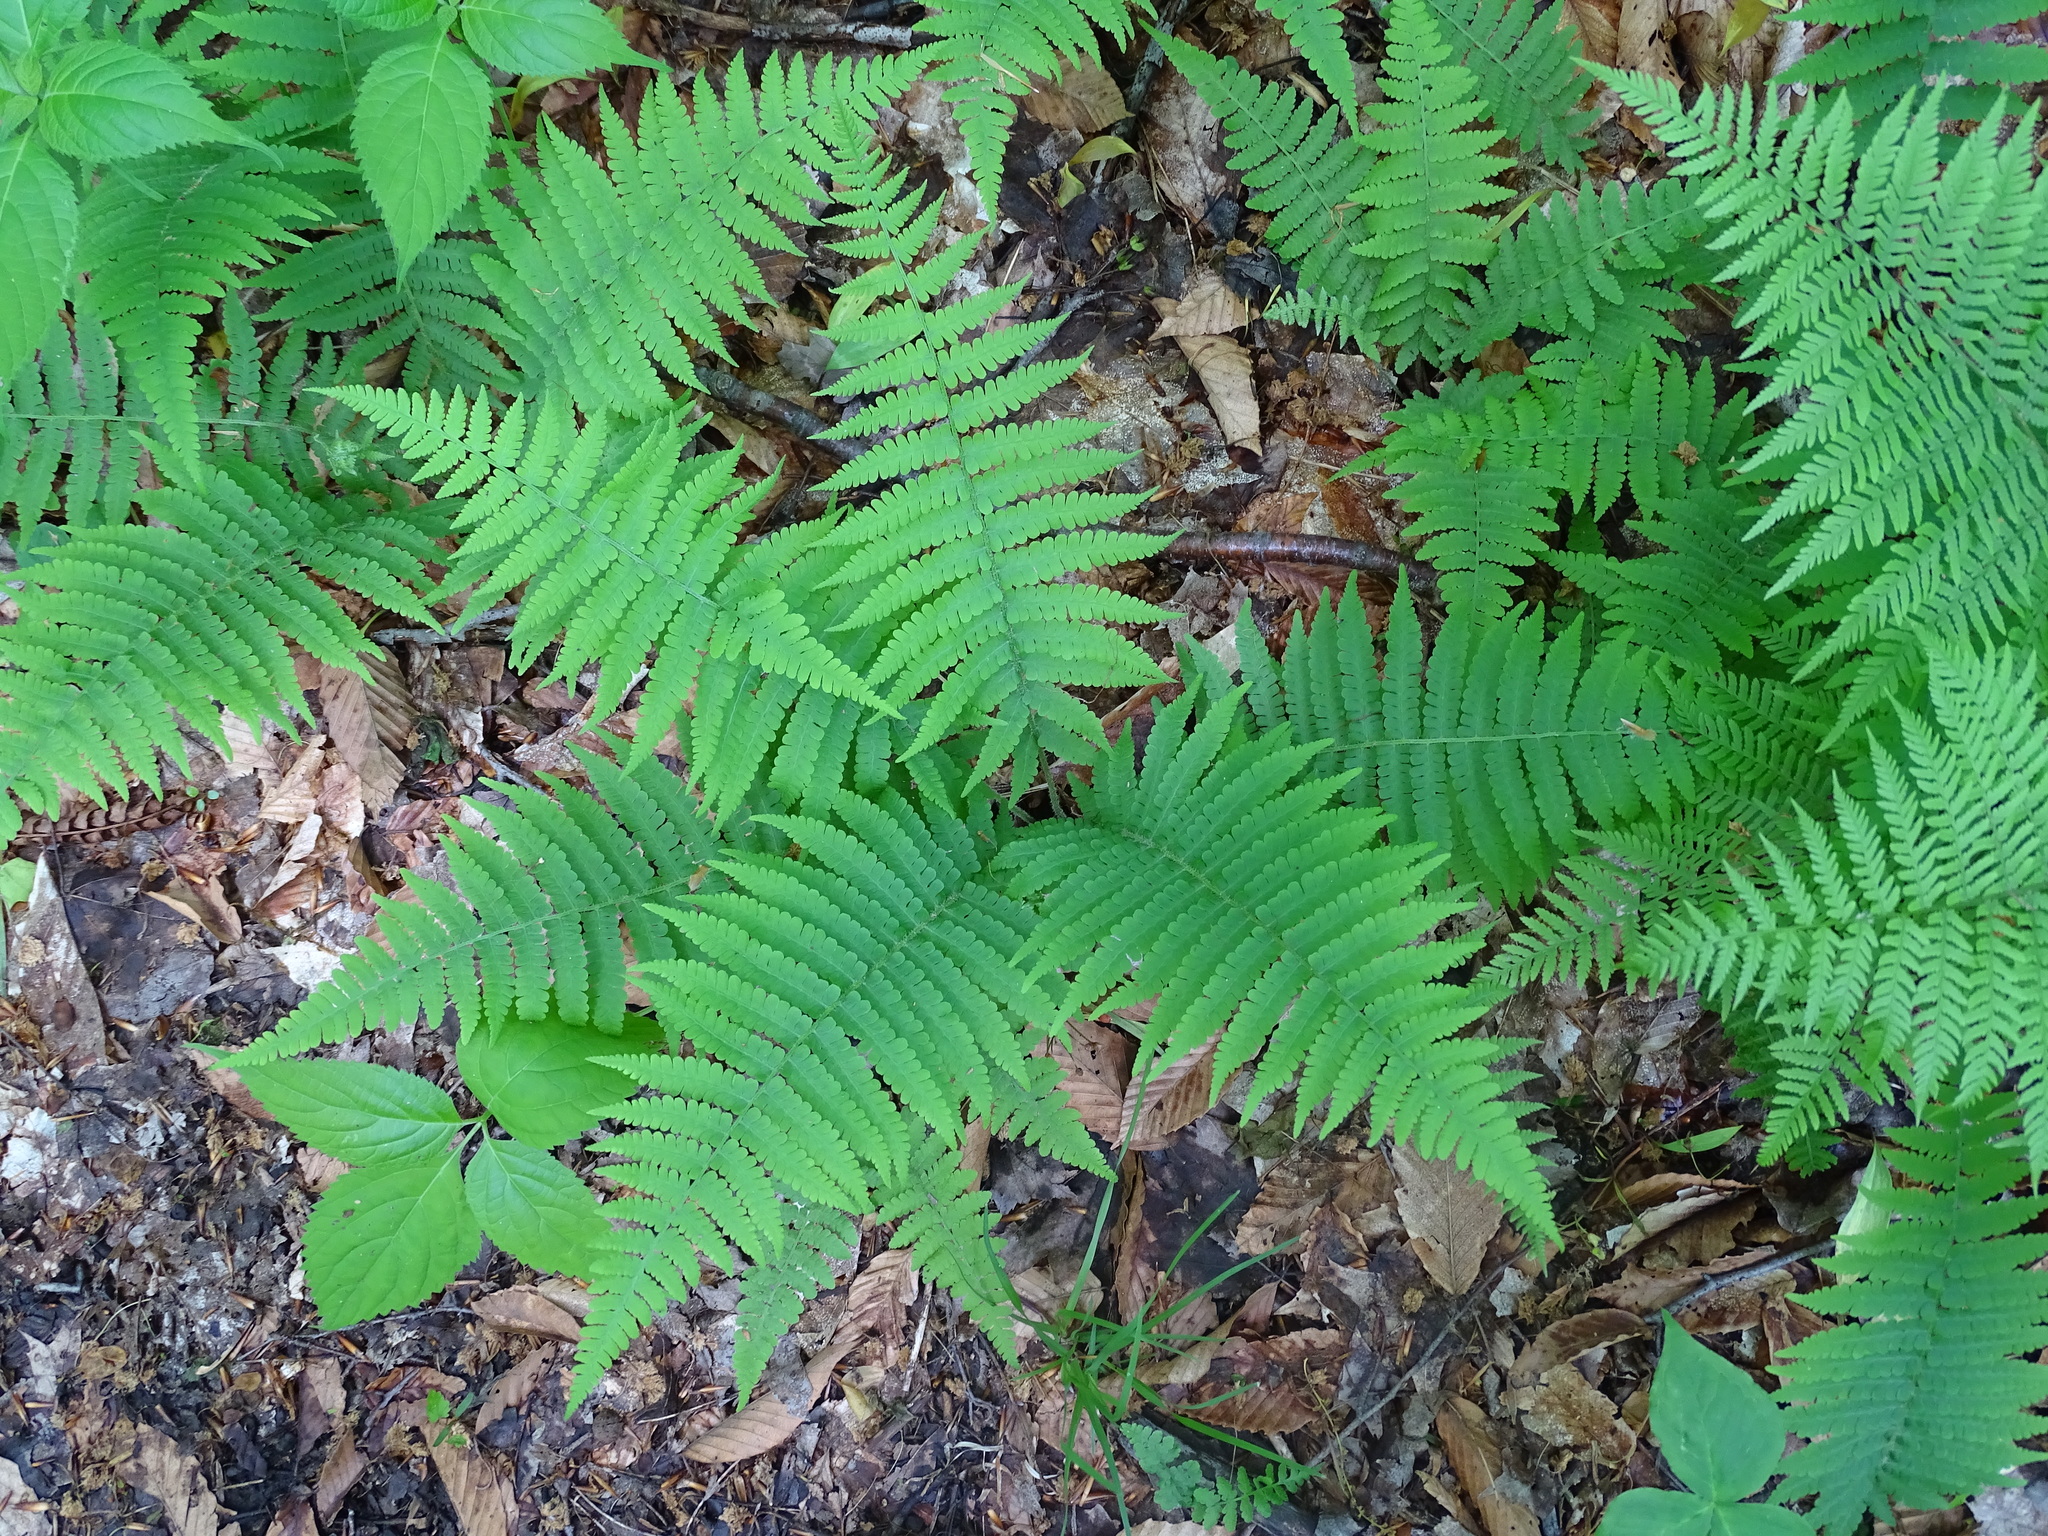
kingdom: Plantae
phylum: Tracheophyta
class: Polypodiopsida
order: Polypodiales
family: Thelypteridaceae
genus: Amauropelta
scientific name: Amauropelta noveboracensis
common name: New york fern
